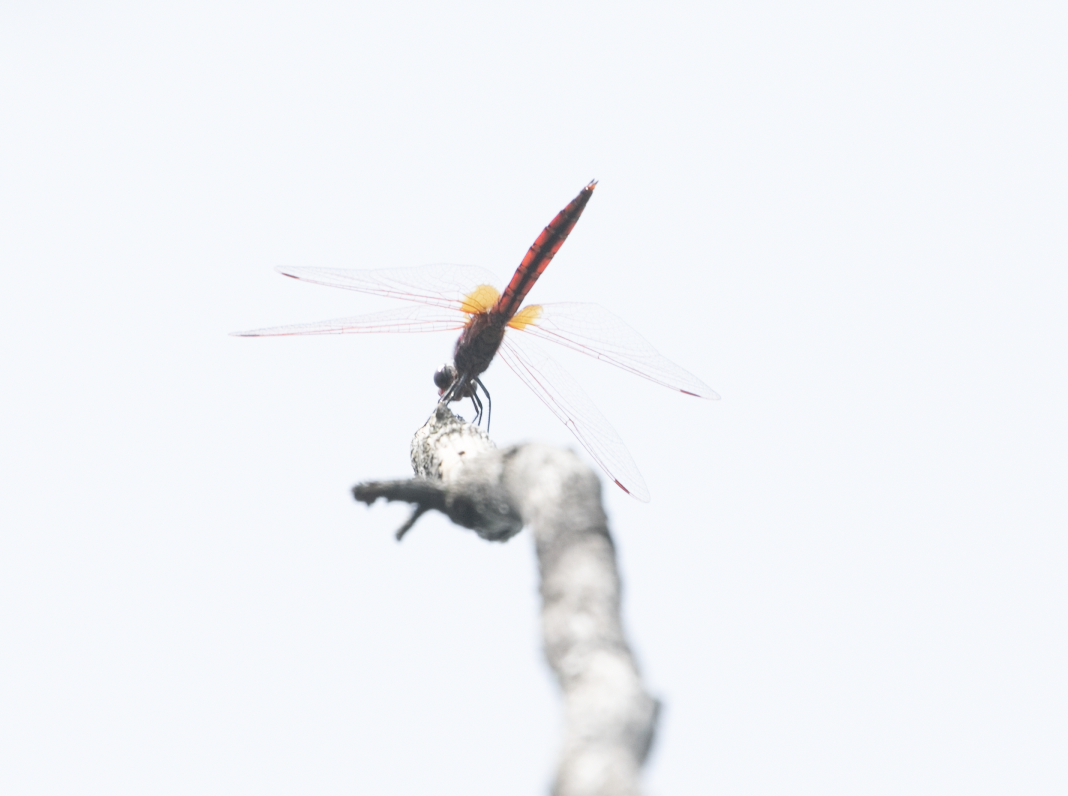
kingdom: Animalia
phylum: Arthropoda
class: Insecta
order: Odonata
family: Libellulidae
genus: Trithemis
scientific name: Trithemis annulata
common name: Violet dropwing
